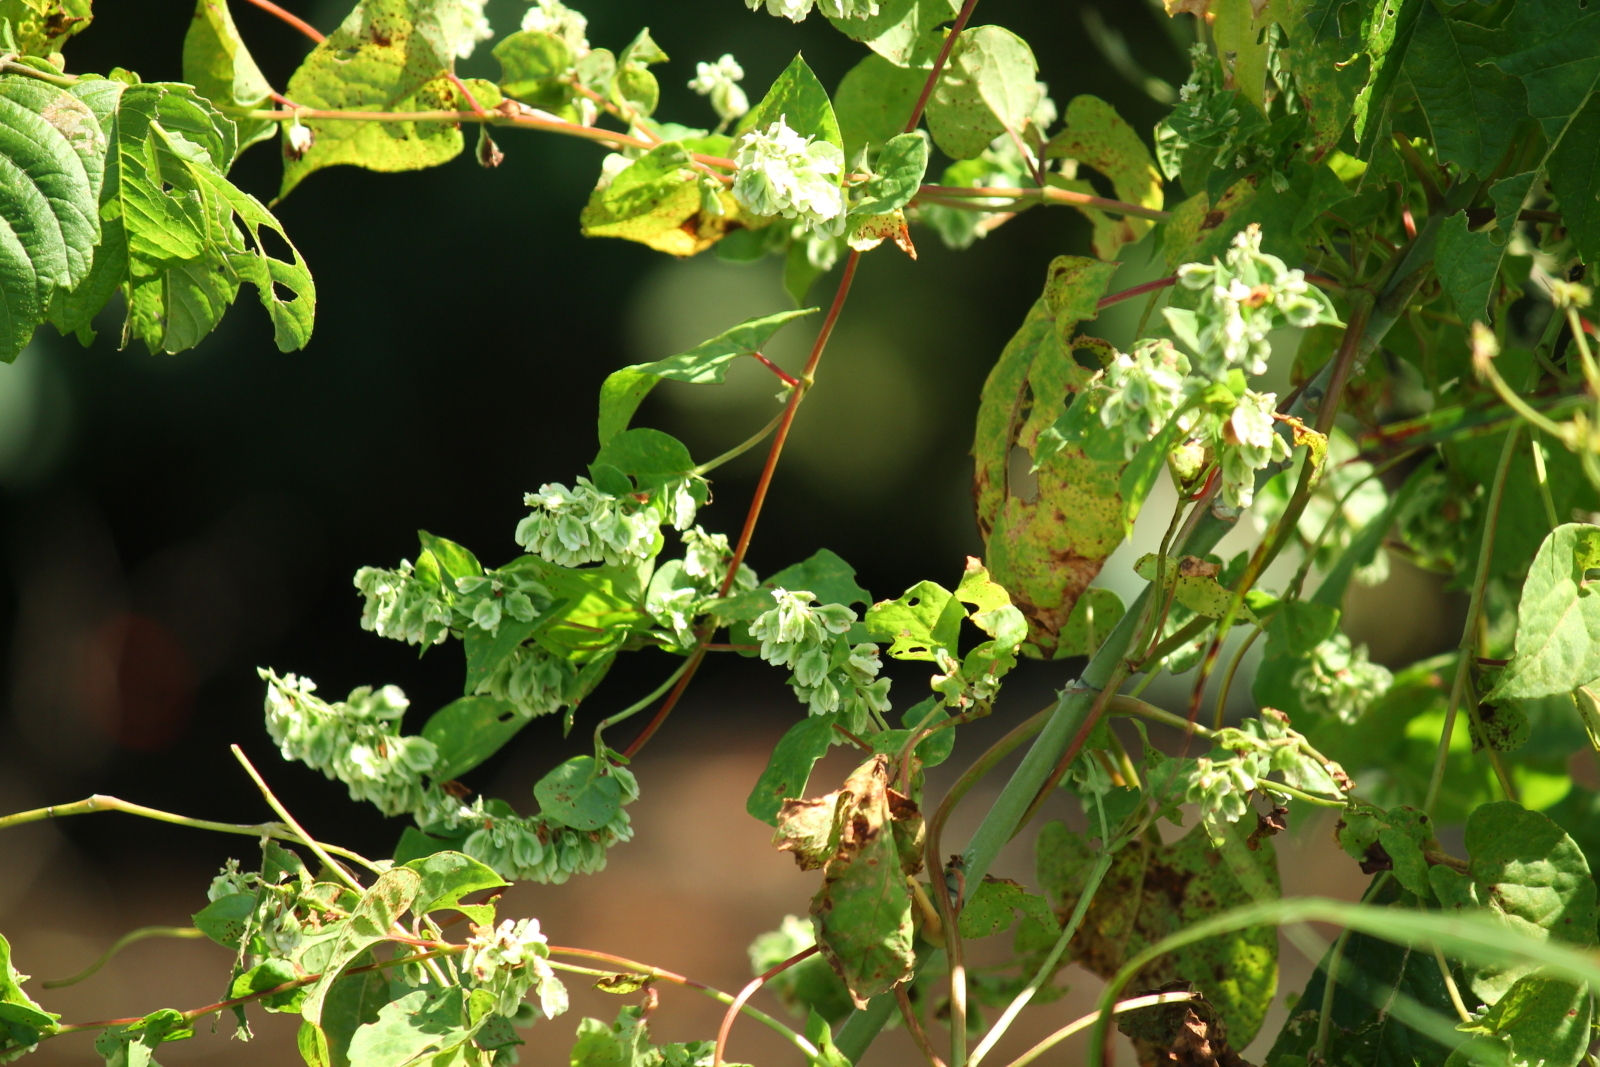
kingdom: Plantae
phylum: Tracheophyta
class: Magnoliopsida
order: Caryophyllales
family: Polygonaceae
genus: Fallopia
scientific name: Fallopia scandens
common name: Climbing false buckwheat
